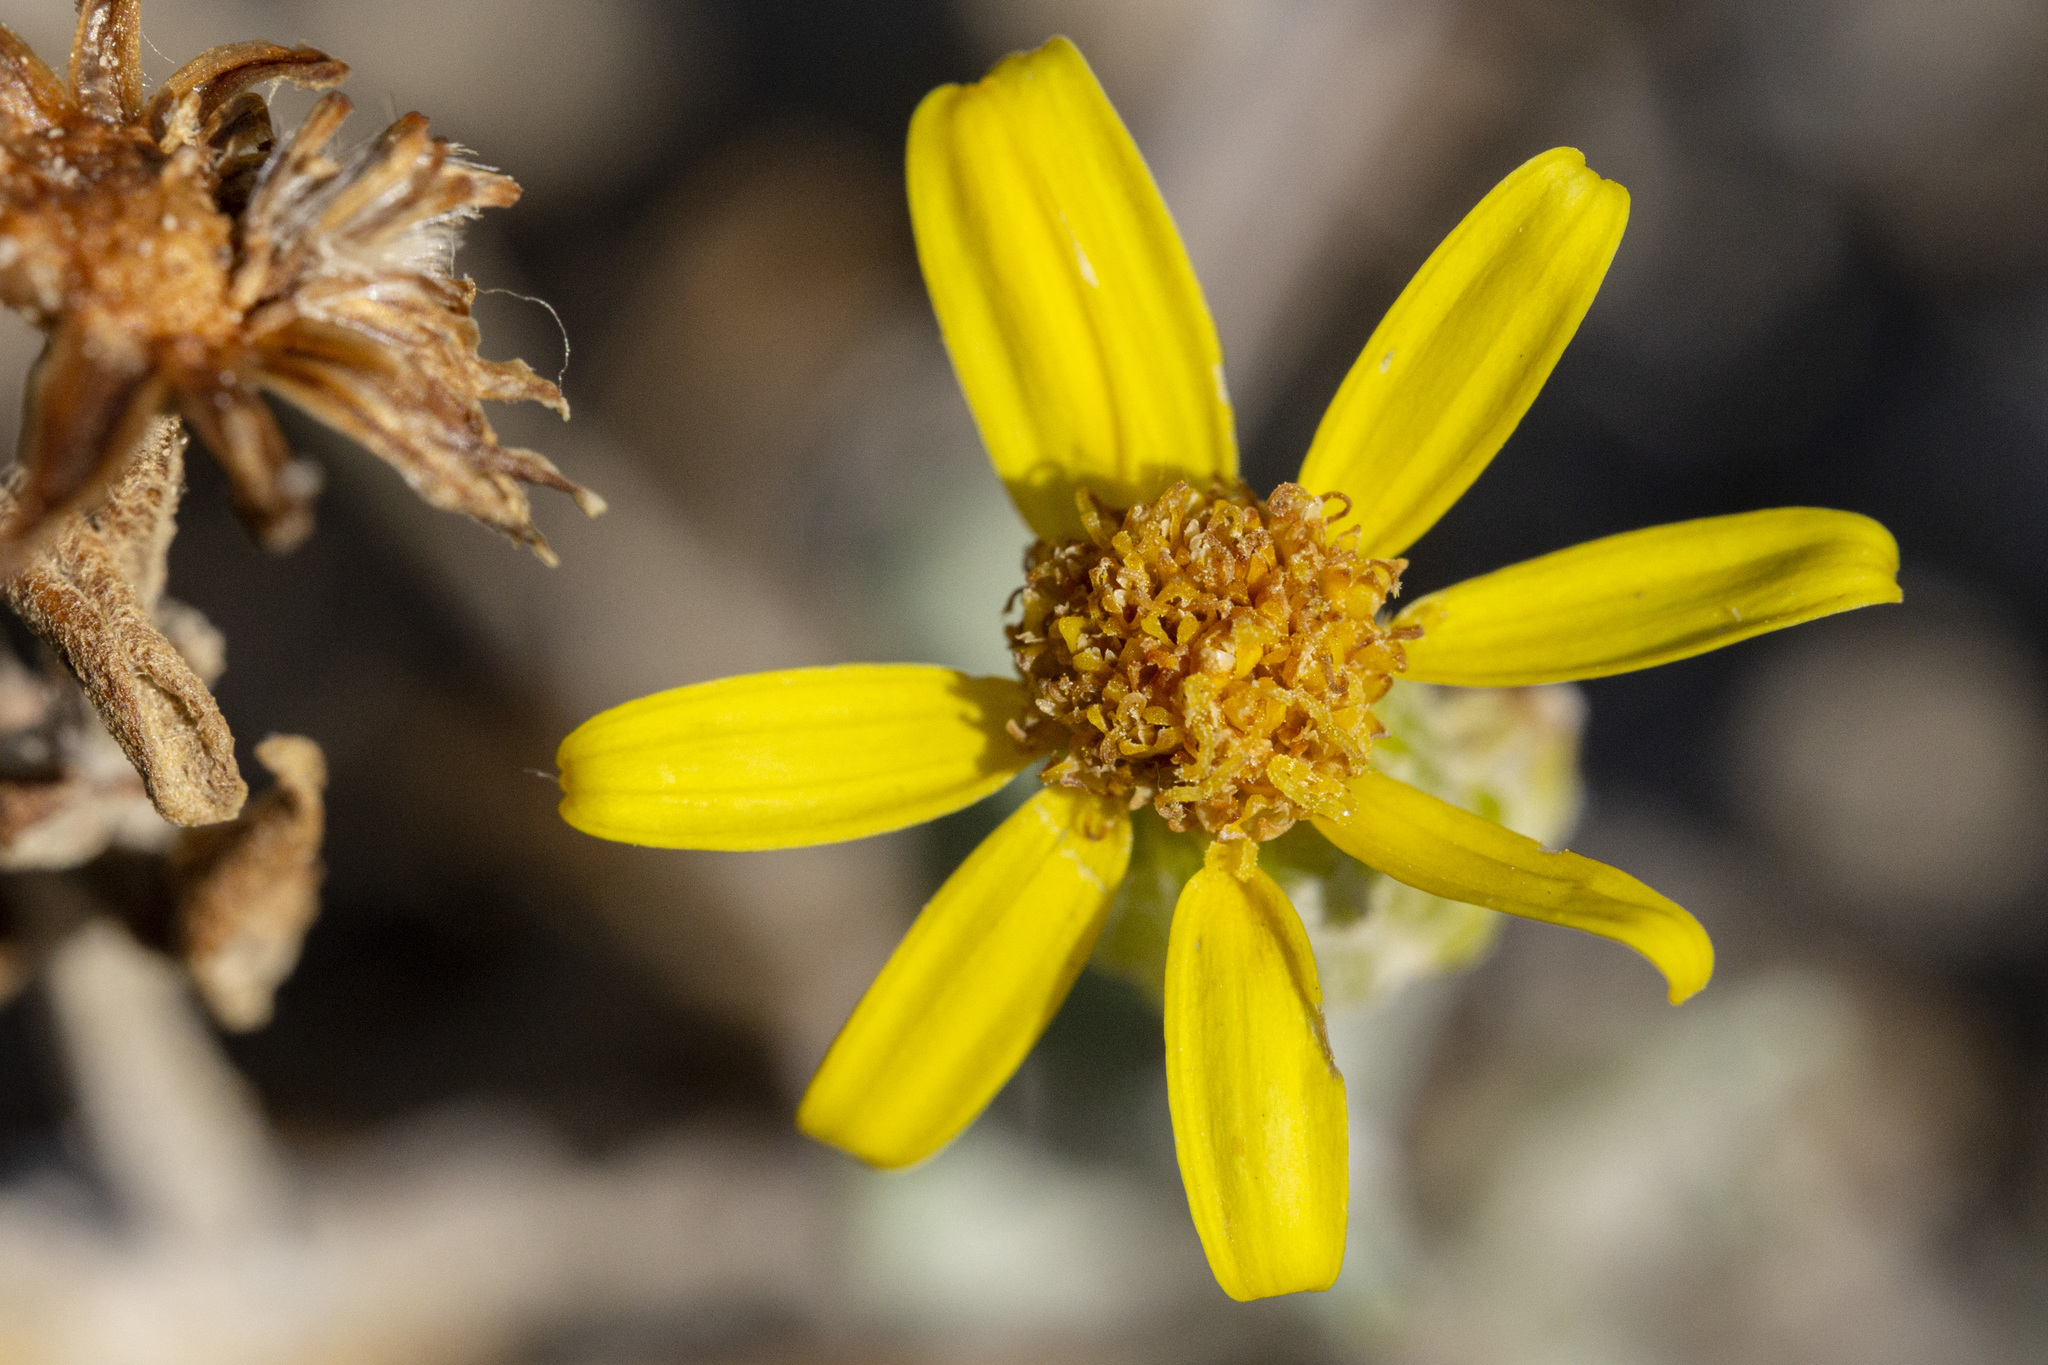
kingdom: Plantae
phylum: Tracheophyta
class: Magnoliopsida
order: Asterales
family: Asteraceae
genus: Packera
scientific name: Packera cana
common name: Woolly groundsel
